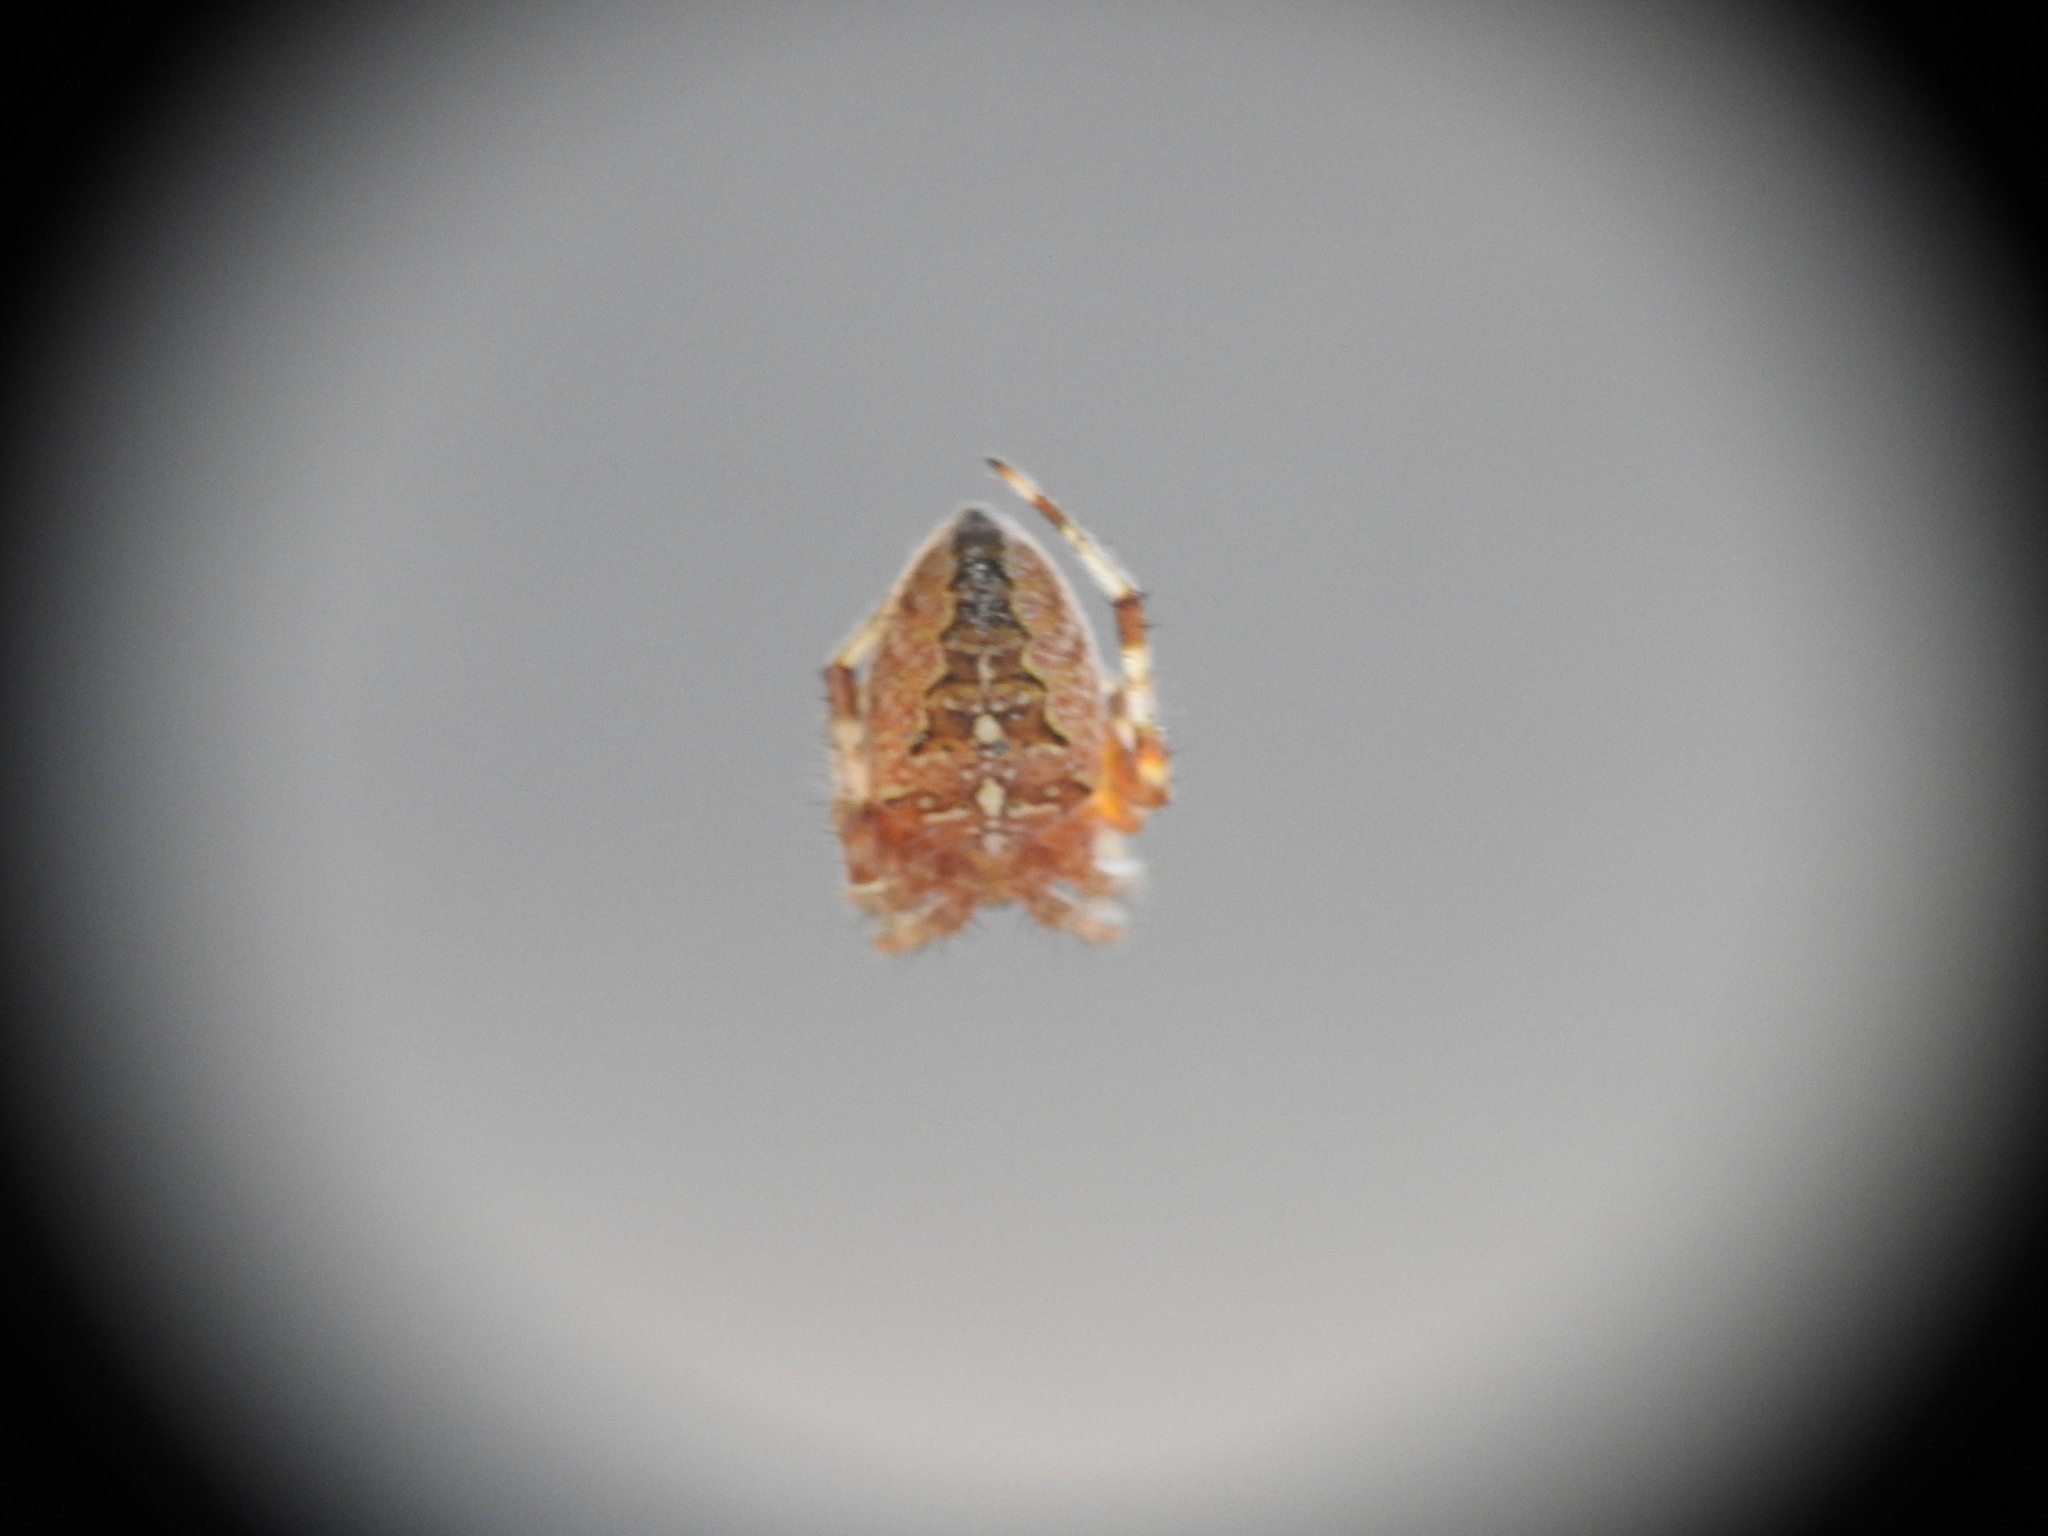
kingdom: Animalia
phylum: Arthropoda
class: Arachnida
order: Araneae
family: Araneidae
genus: Araneus
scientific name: Araneus diadematus
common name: Cross orbweaver
